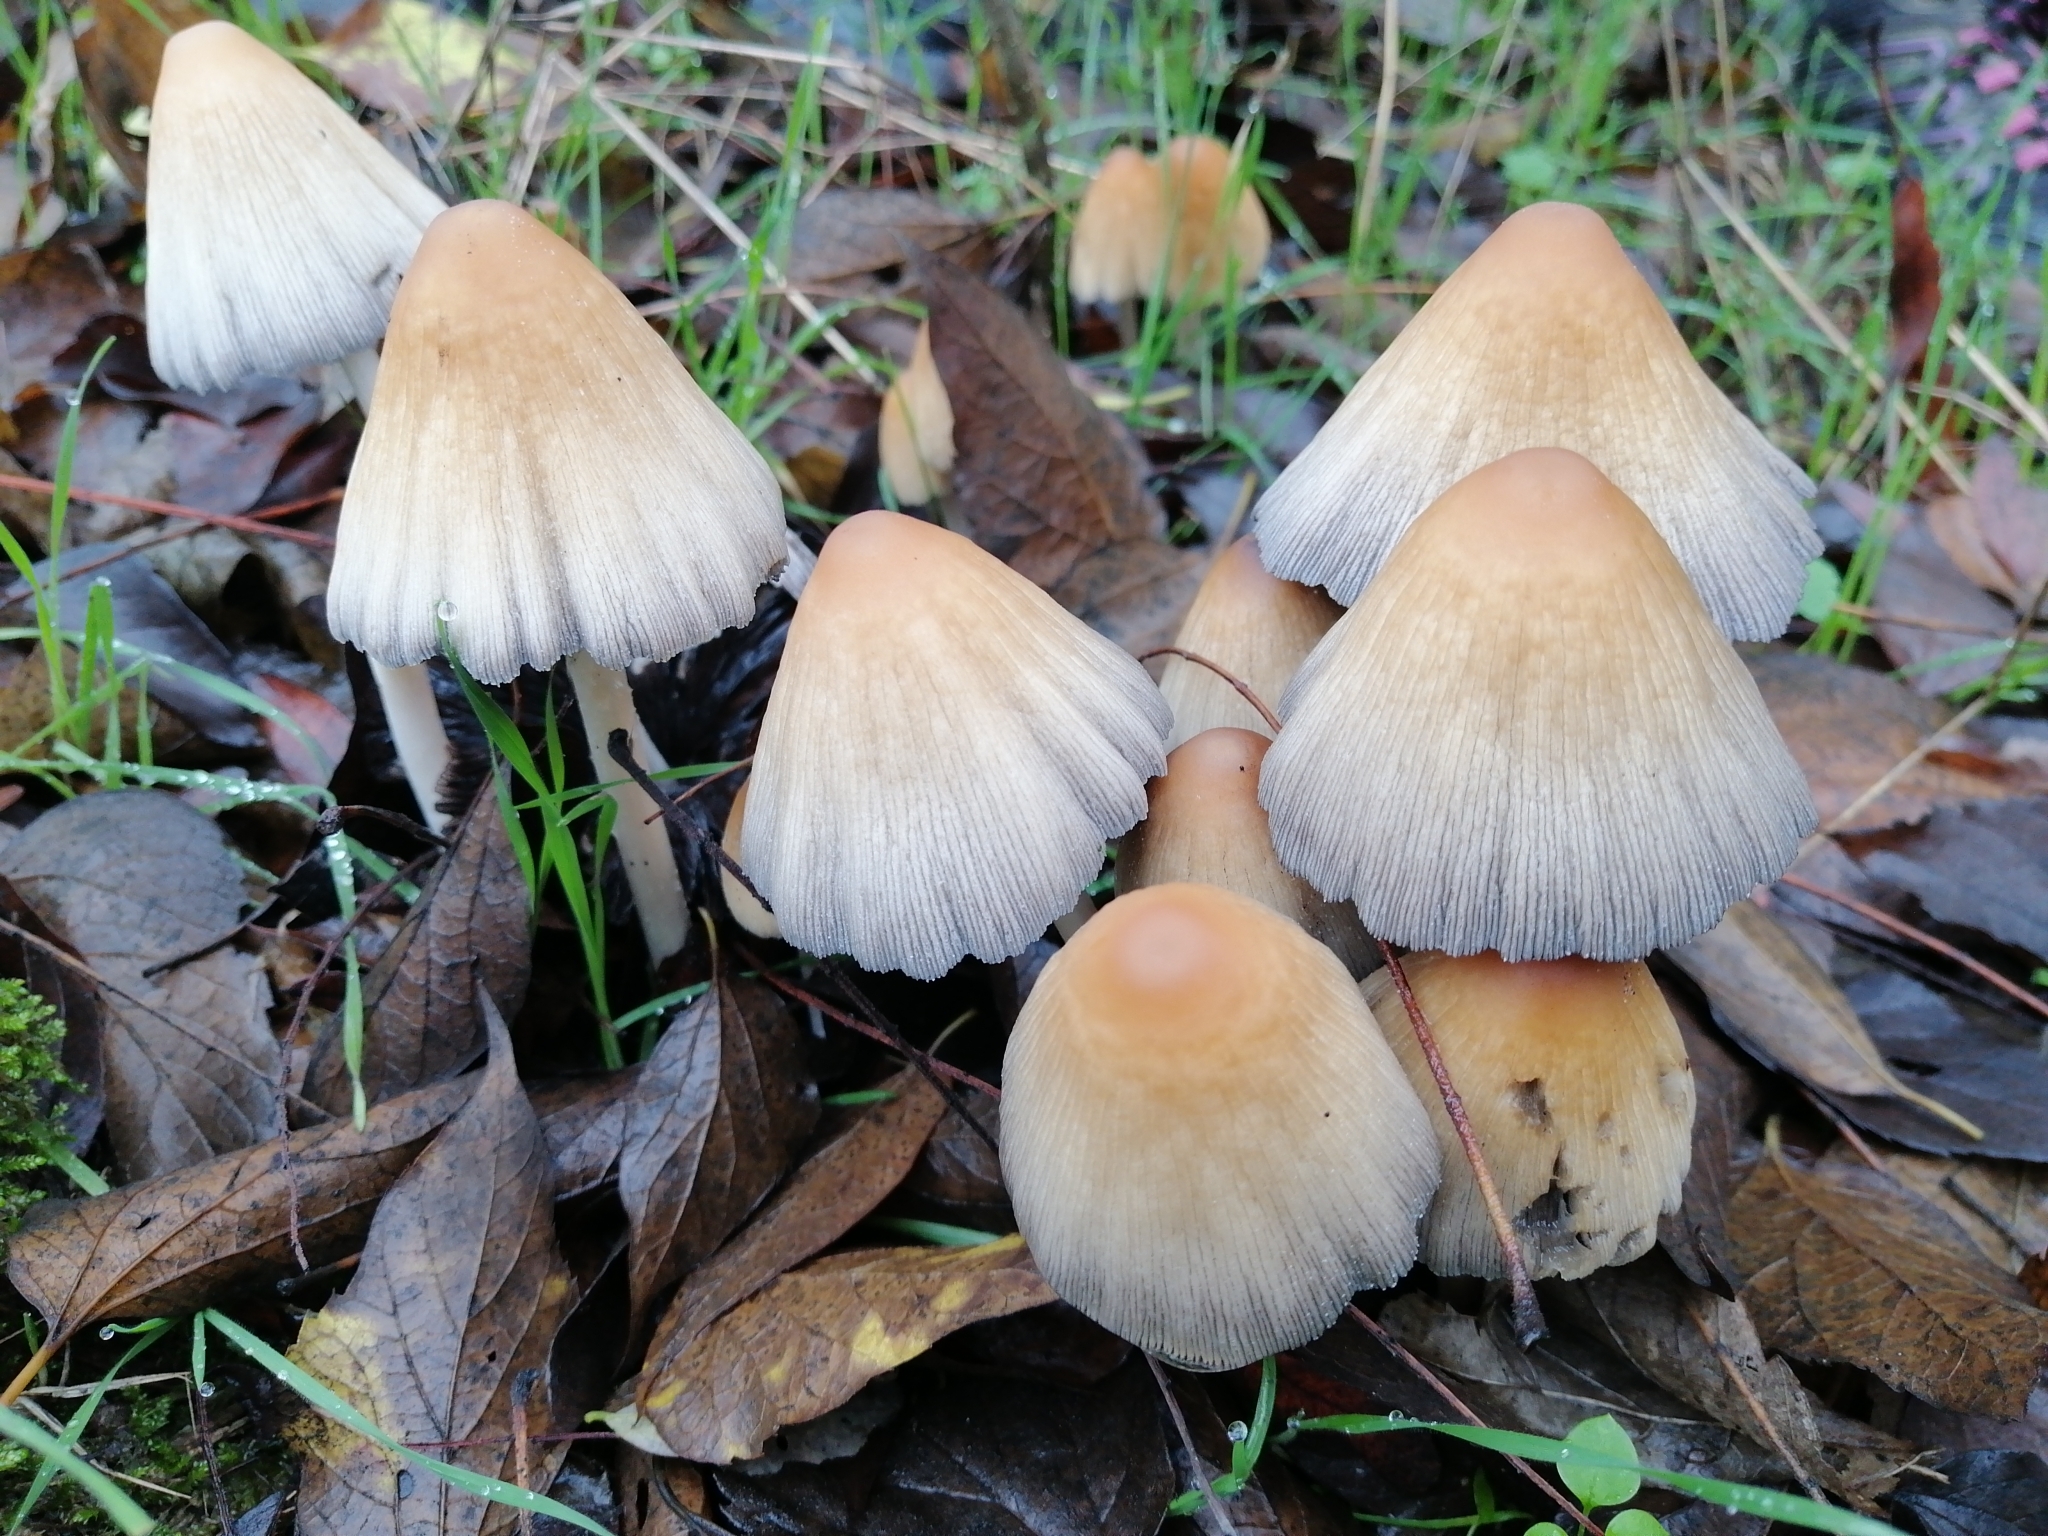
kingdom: Fungi
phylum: Basidiomycota
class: Agaricomycetes
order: Agaricales
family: Psathyrellaceae
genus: Coprinellus
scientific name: Coprinellus micaceus
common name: Glistening ink-cap
